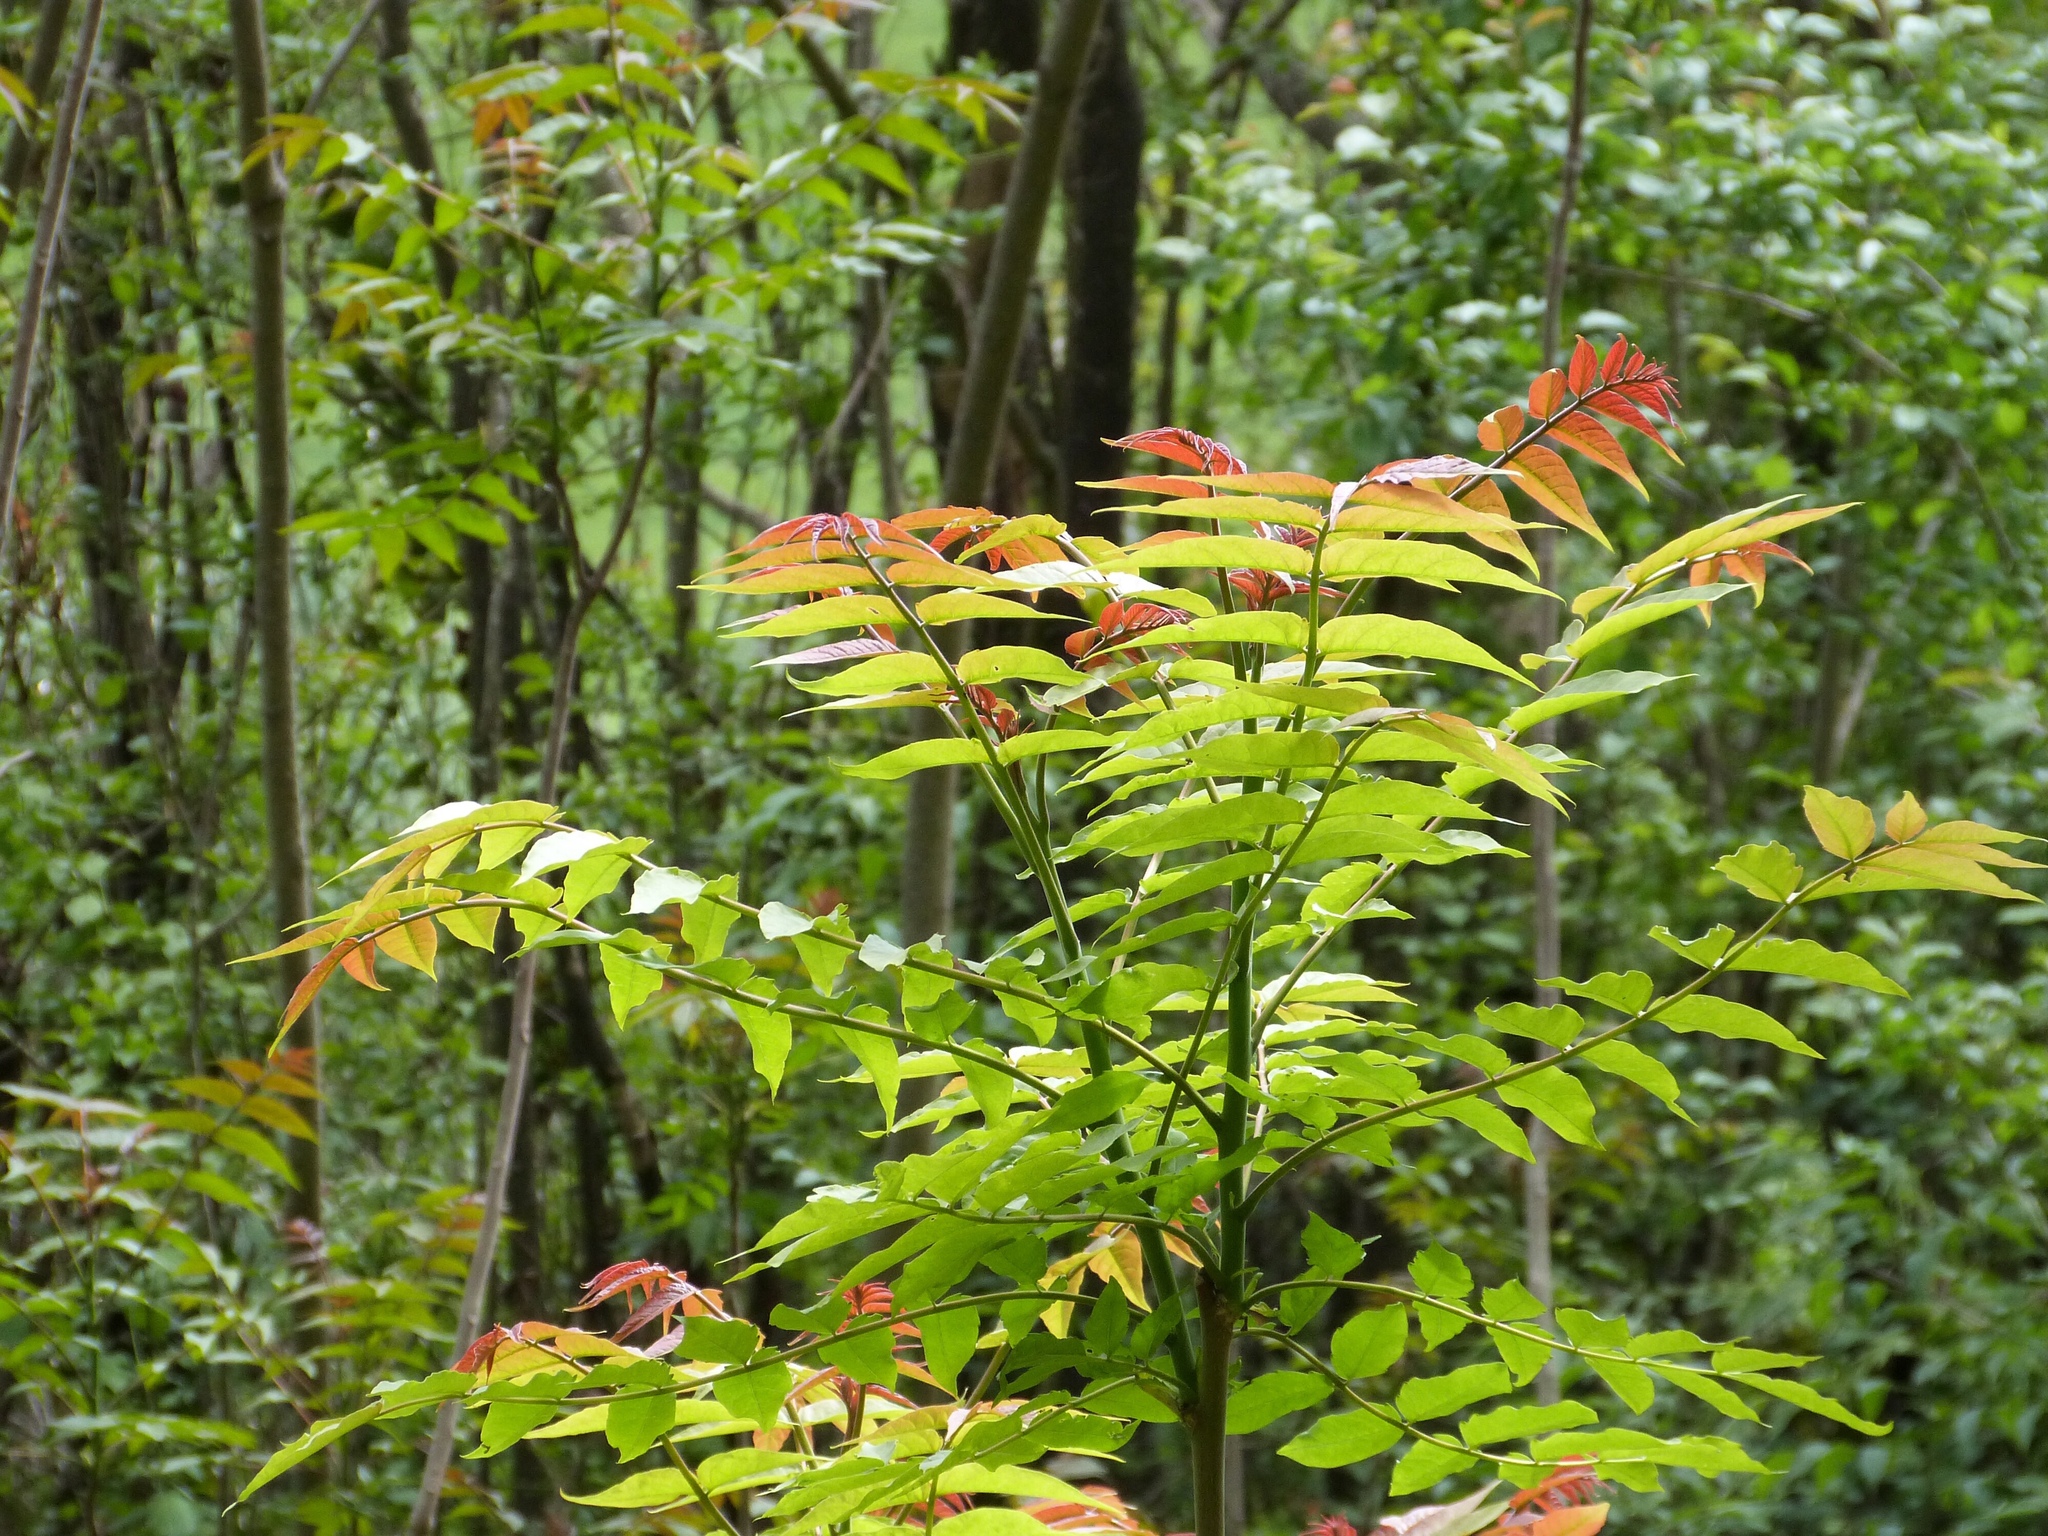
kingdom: Plantae
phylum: Tracheophyta
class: Magnoliopsida
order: Sapindales
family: Simaroubaceae
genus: Ailanthus
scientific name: Ailanthus altissima
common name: Tree-of-heaven
